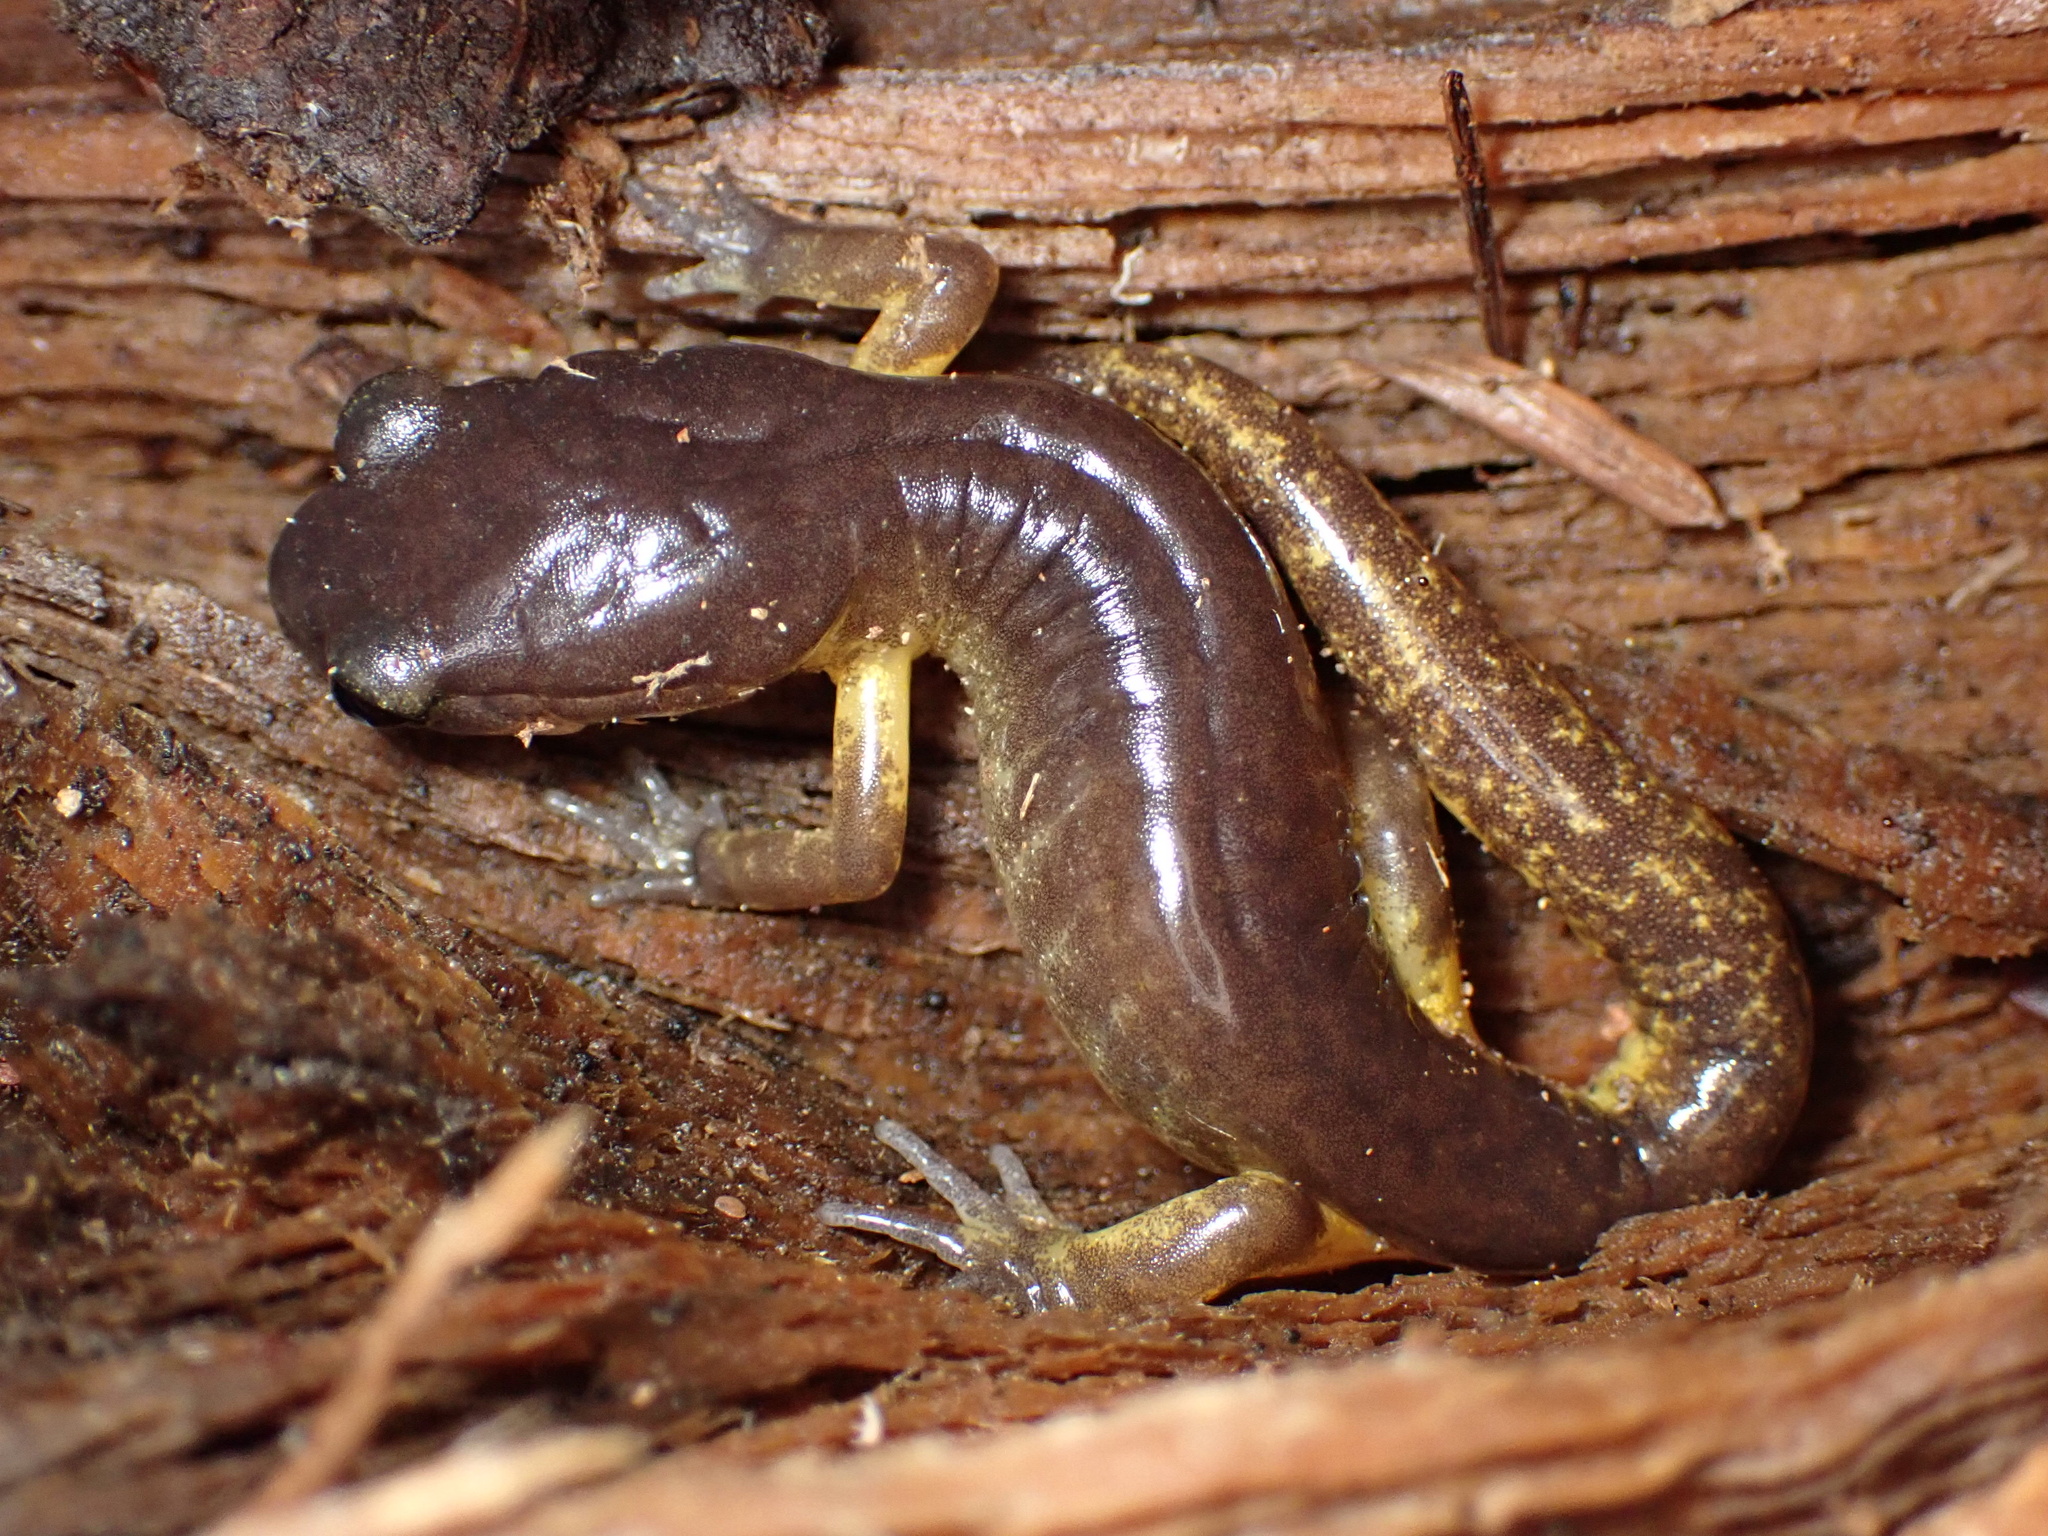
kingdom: Animalia
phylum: Chordata
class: Amphibia
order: Caudata
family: Plethodontidae
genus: Ensatina
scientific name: Ensatina eschscholtzii
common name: Ensatina
